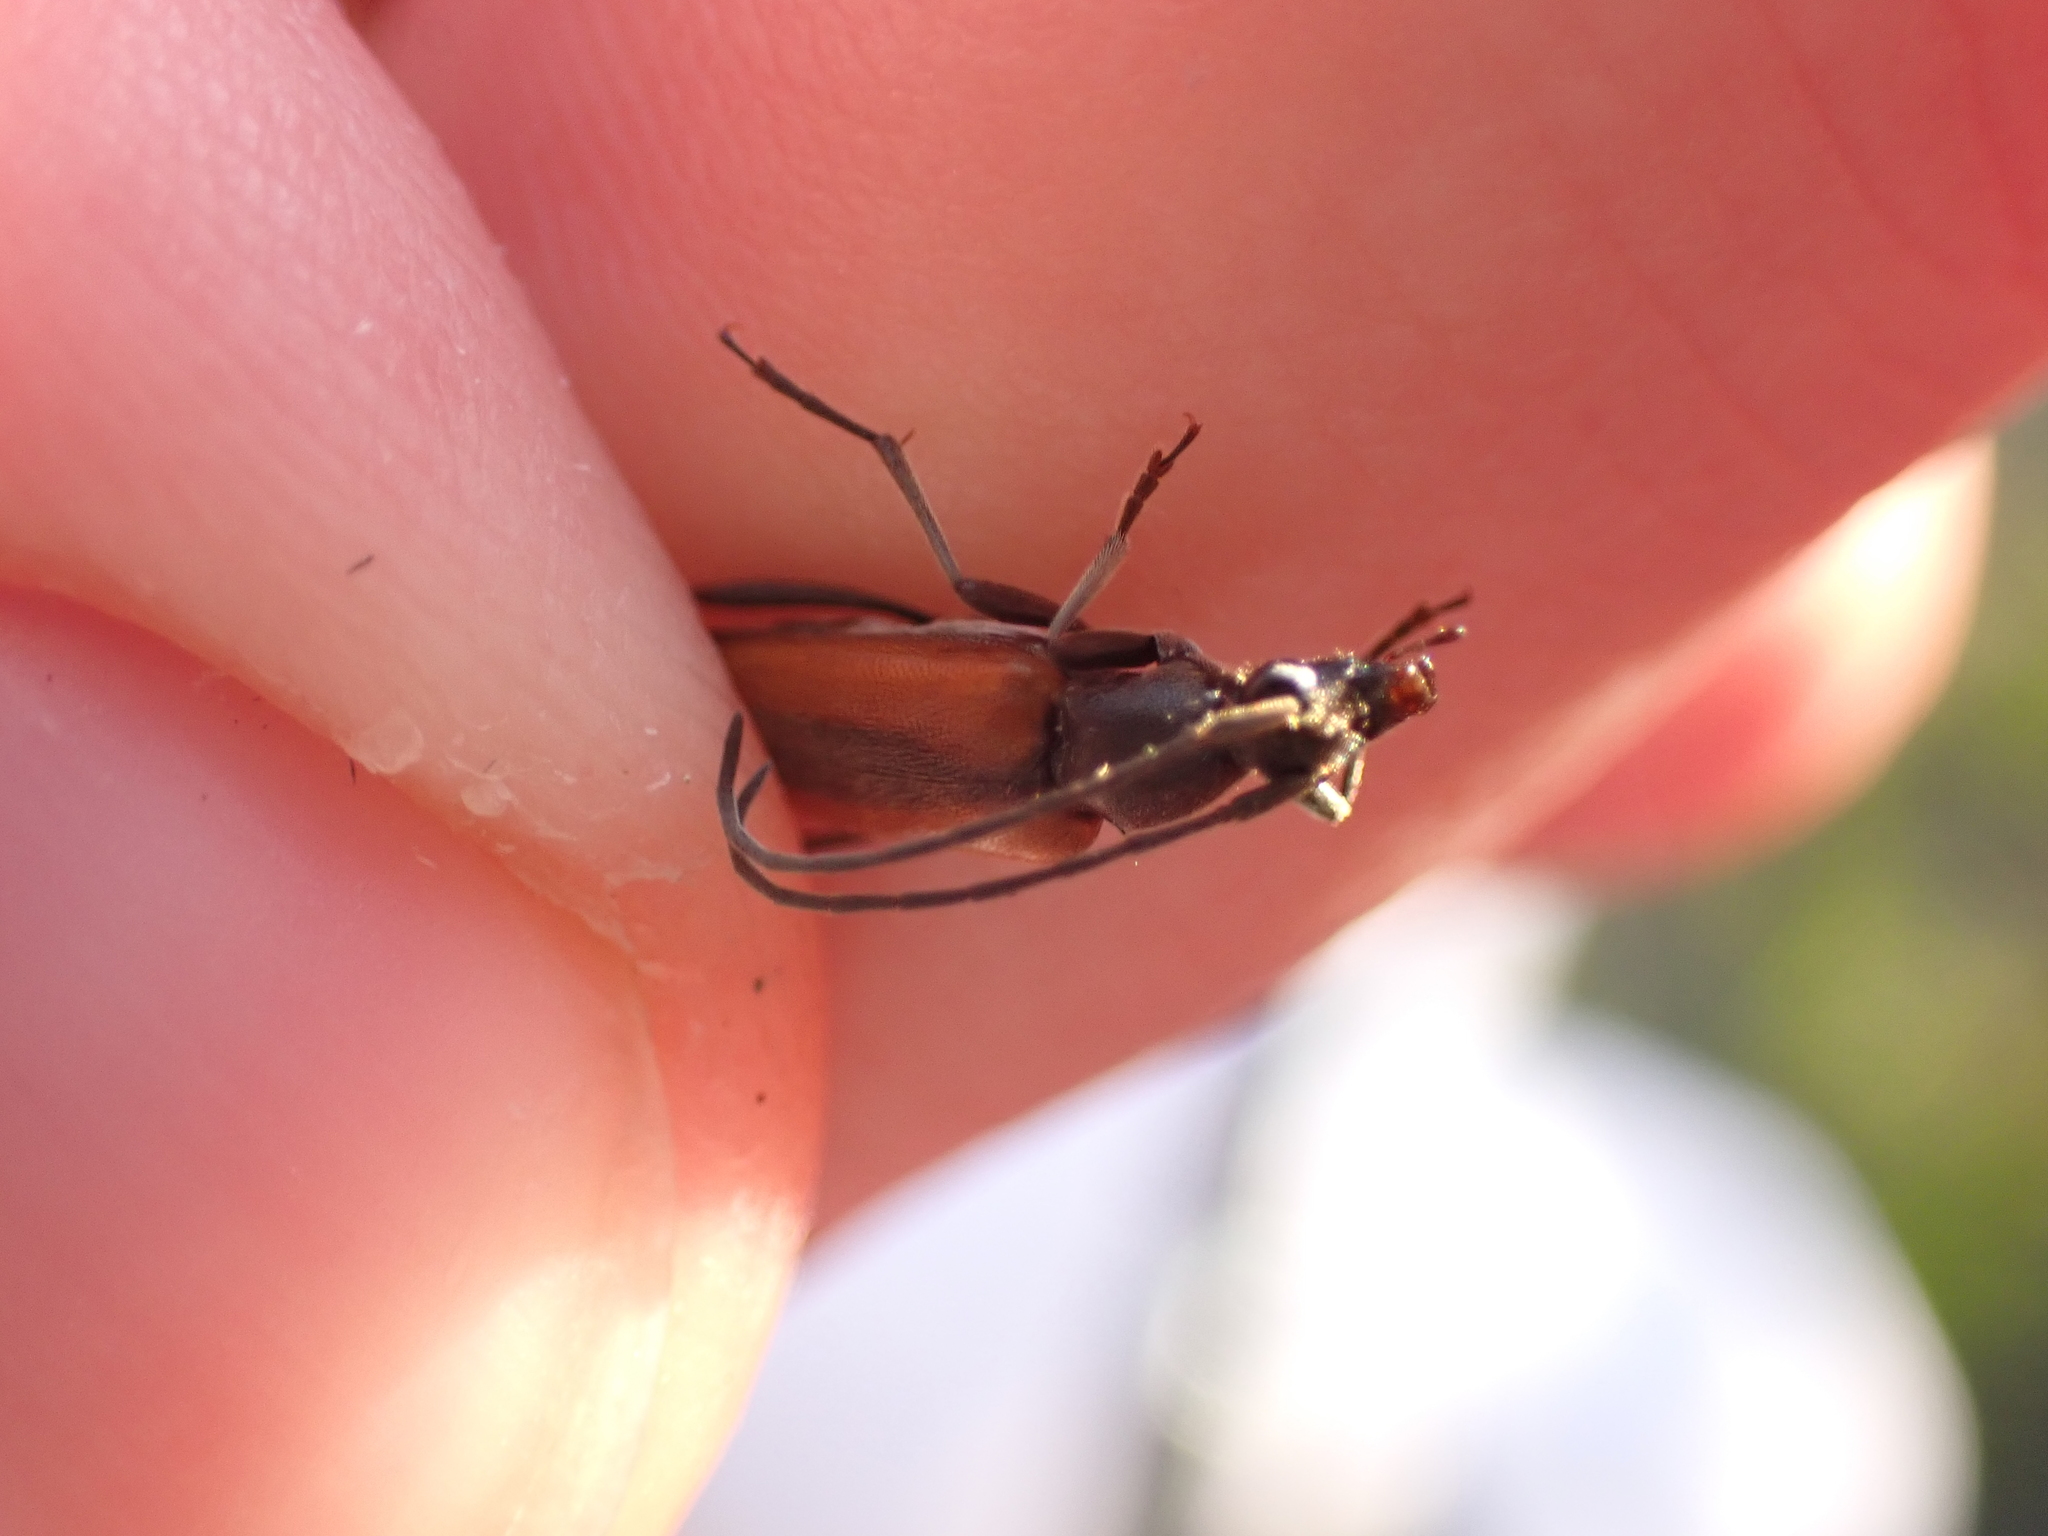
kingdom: Animalia
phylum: Arthropoda
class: Insecta
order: Coleoptera
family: Cerambycidae
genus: Stenurella
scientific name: Stenurella melanura
